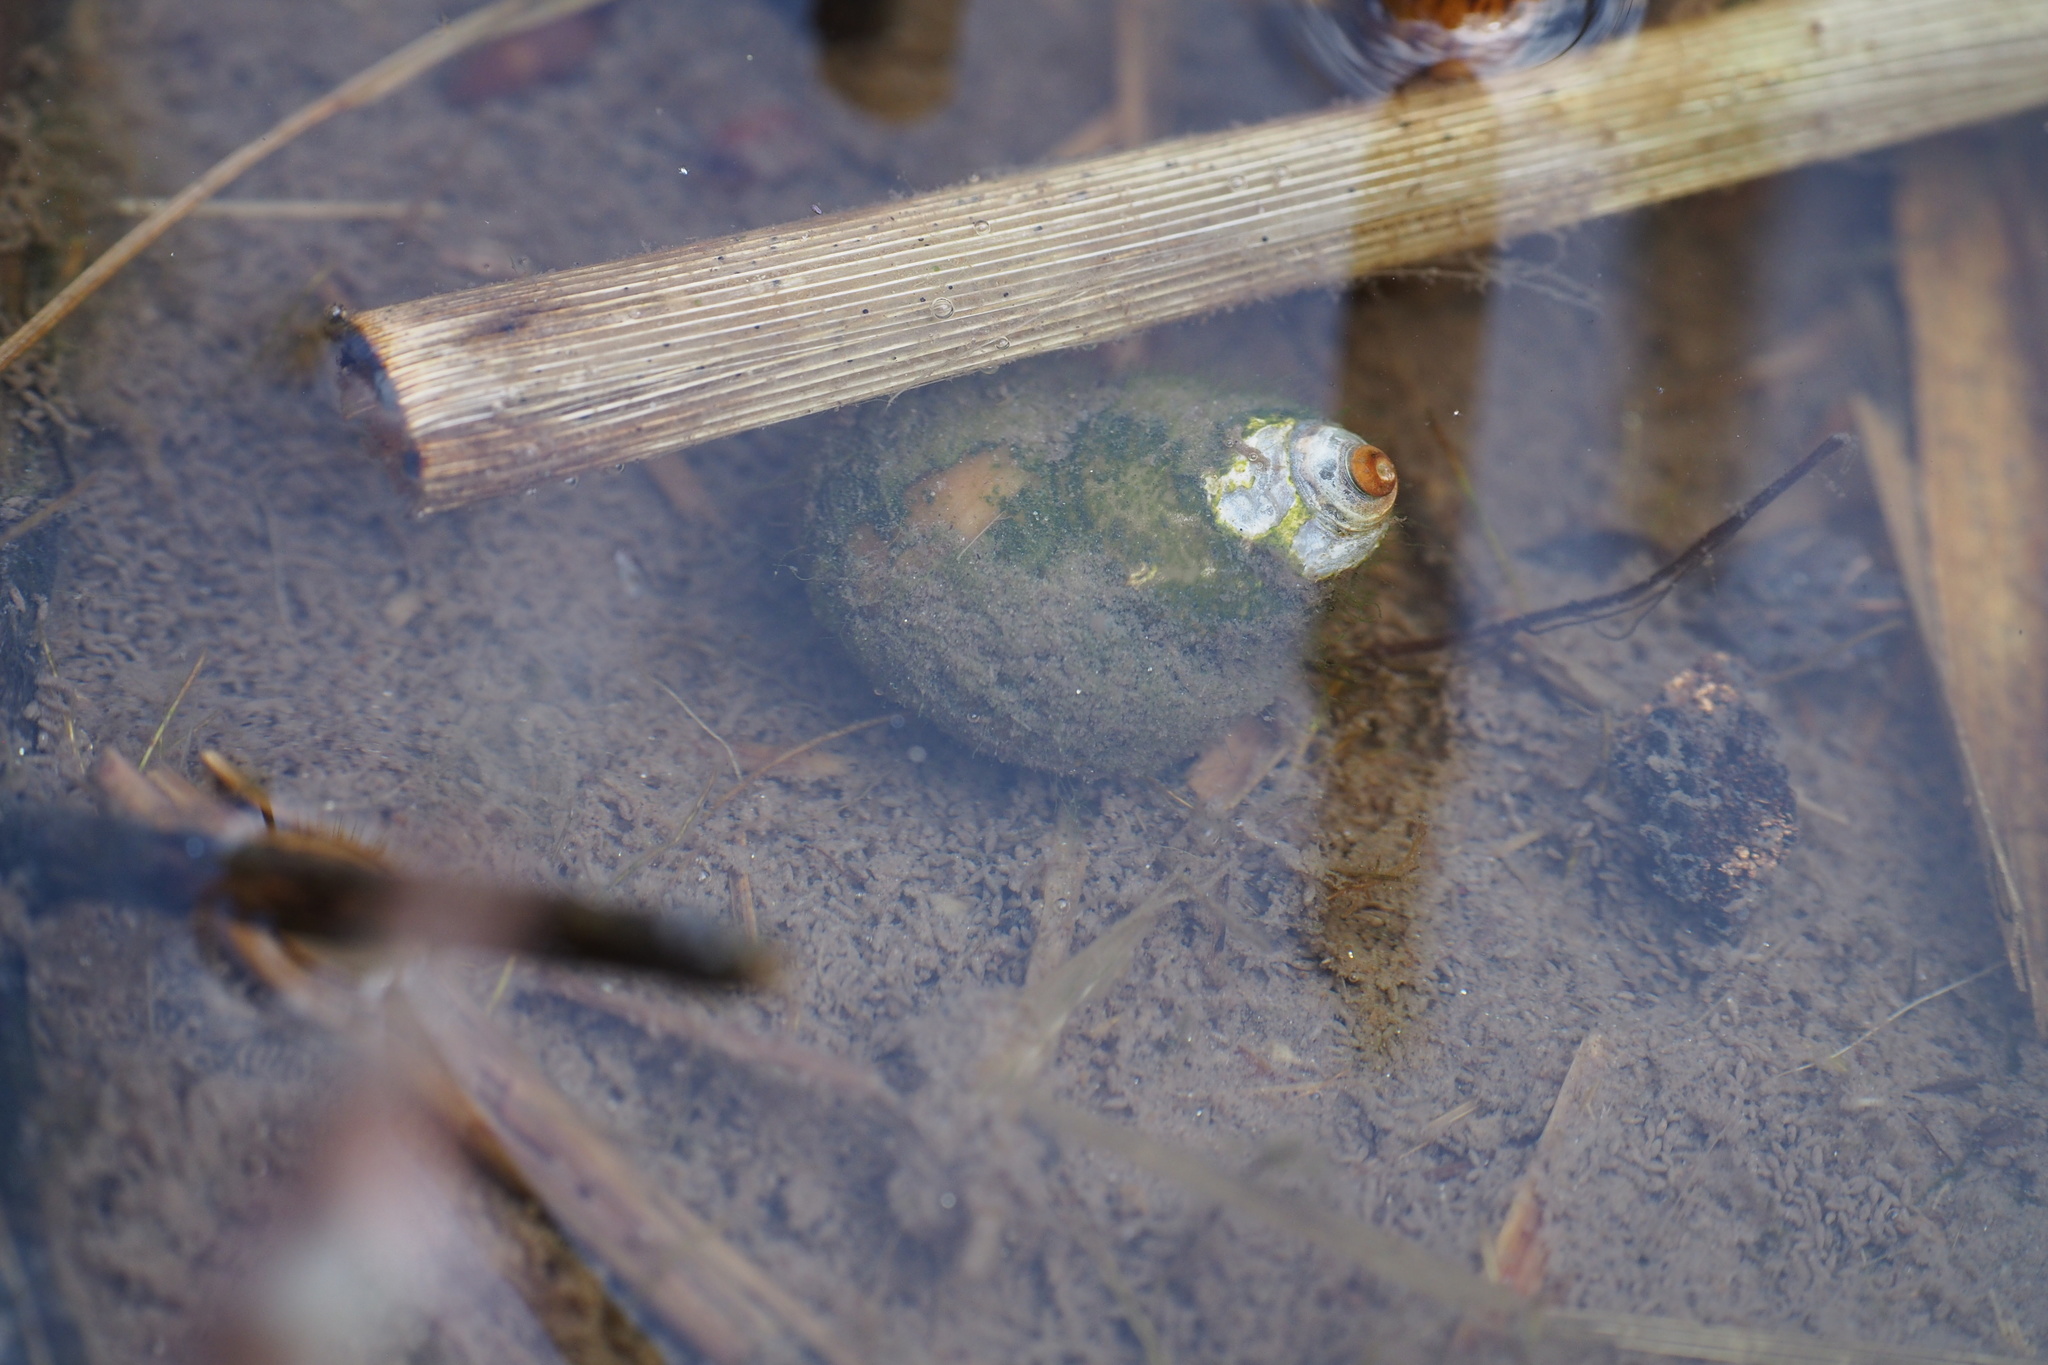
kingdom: Animalia
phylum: Mollusca
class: Gastropoda
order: Architaenioglossa
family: Viviparidae
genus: Sinotaia
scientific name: Sinotaia quadrata
